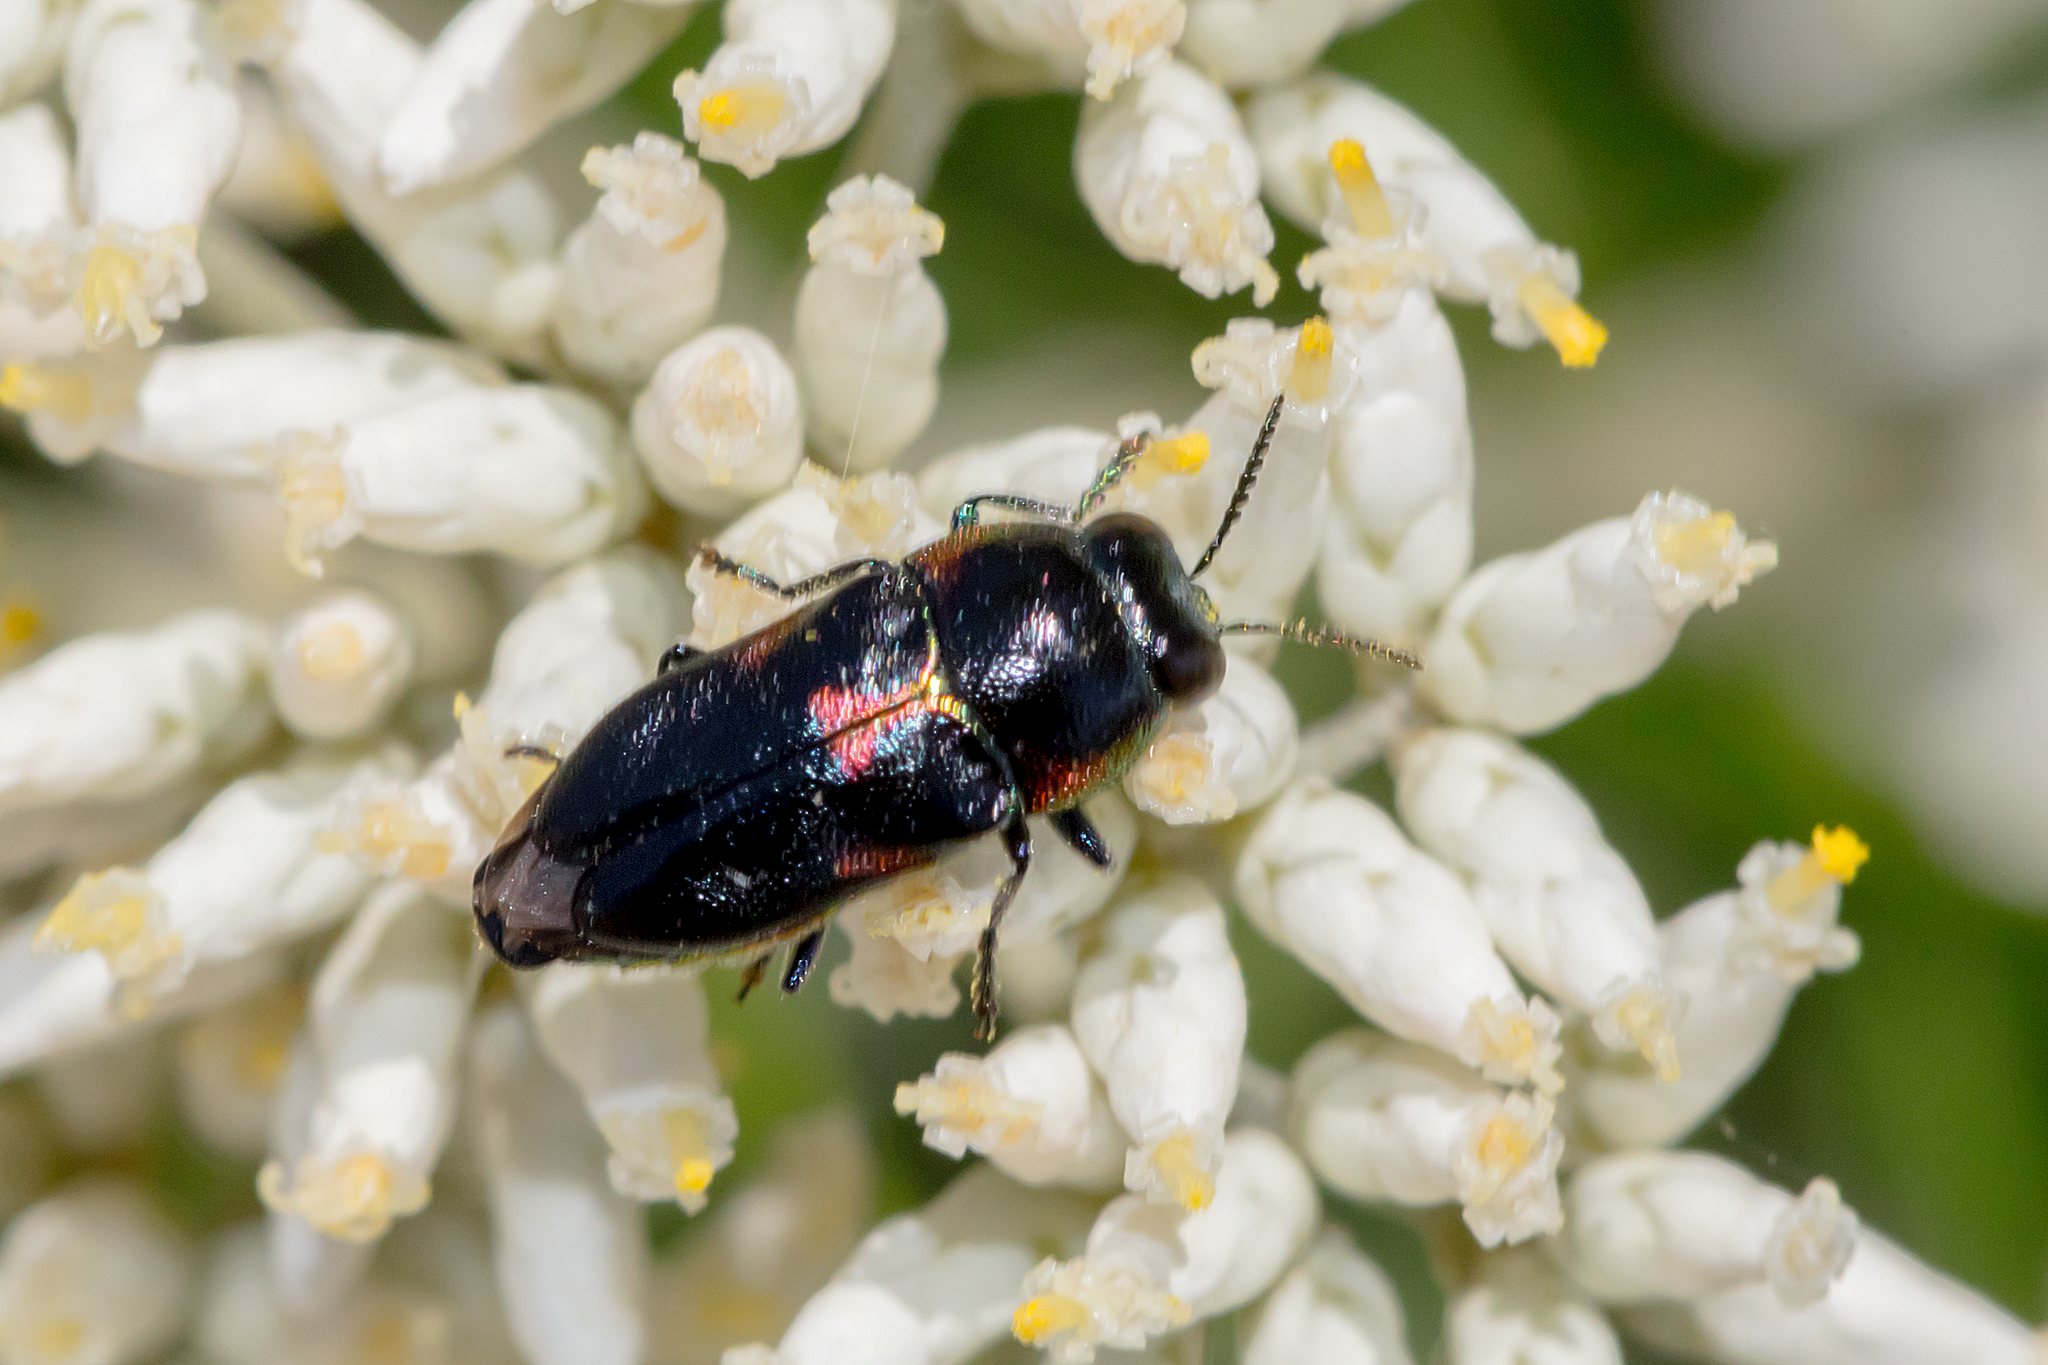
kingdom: Animalia
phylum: Arthropoda
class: Insecta
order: Coleoptera
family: Buprestidae
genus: Neocuris
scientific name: Neocuris fortnumi
